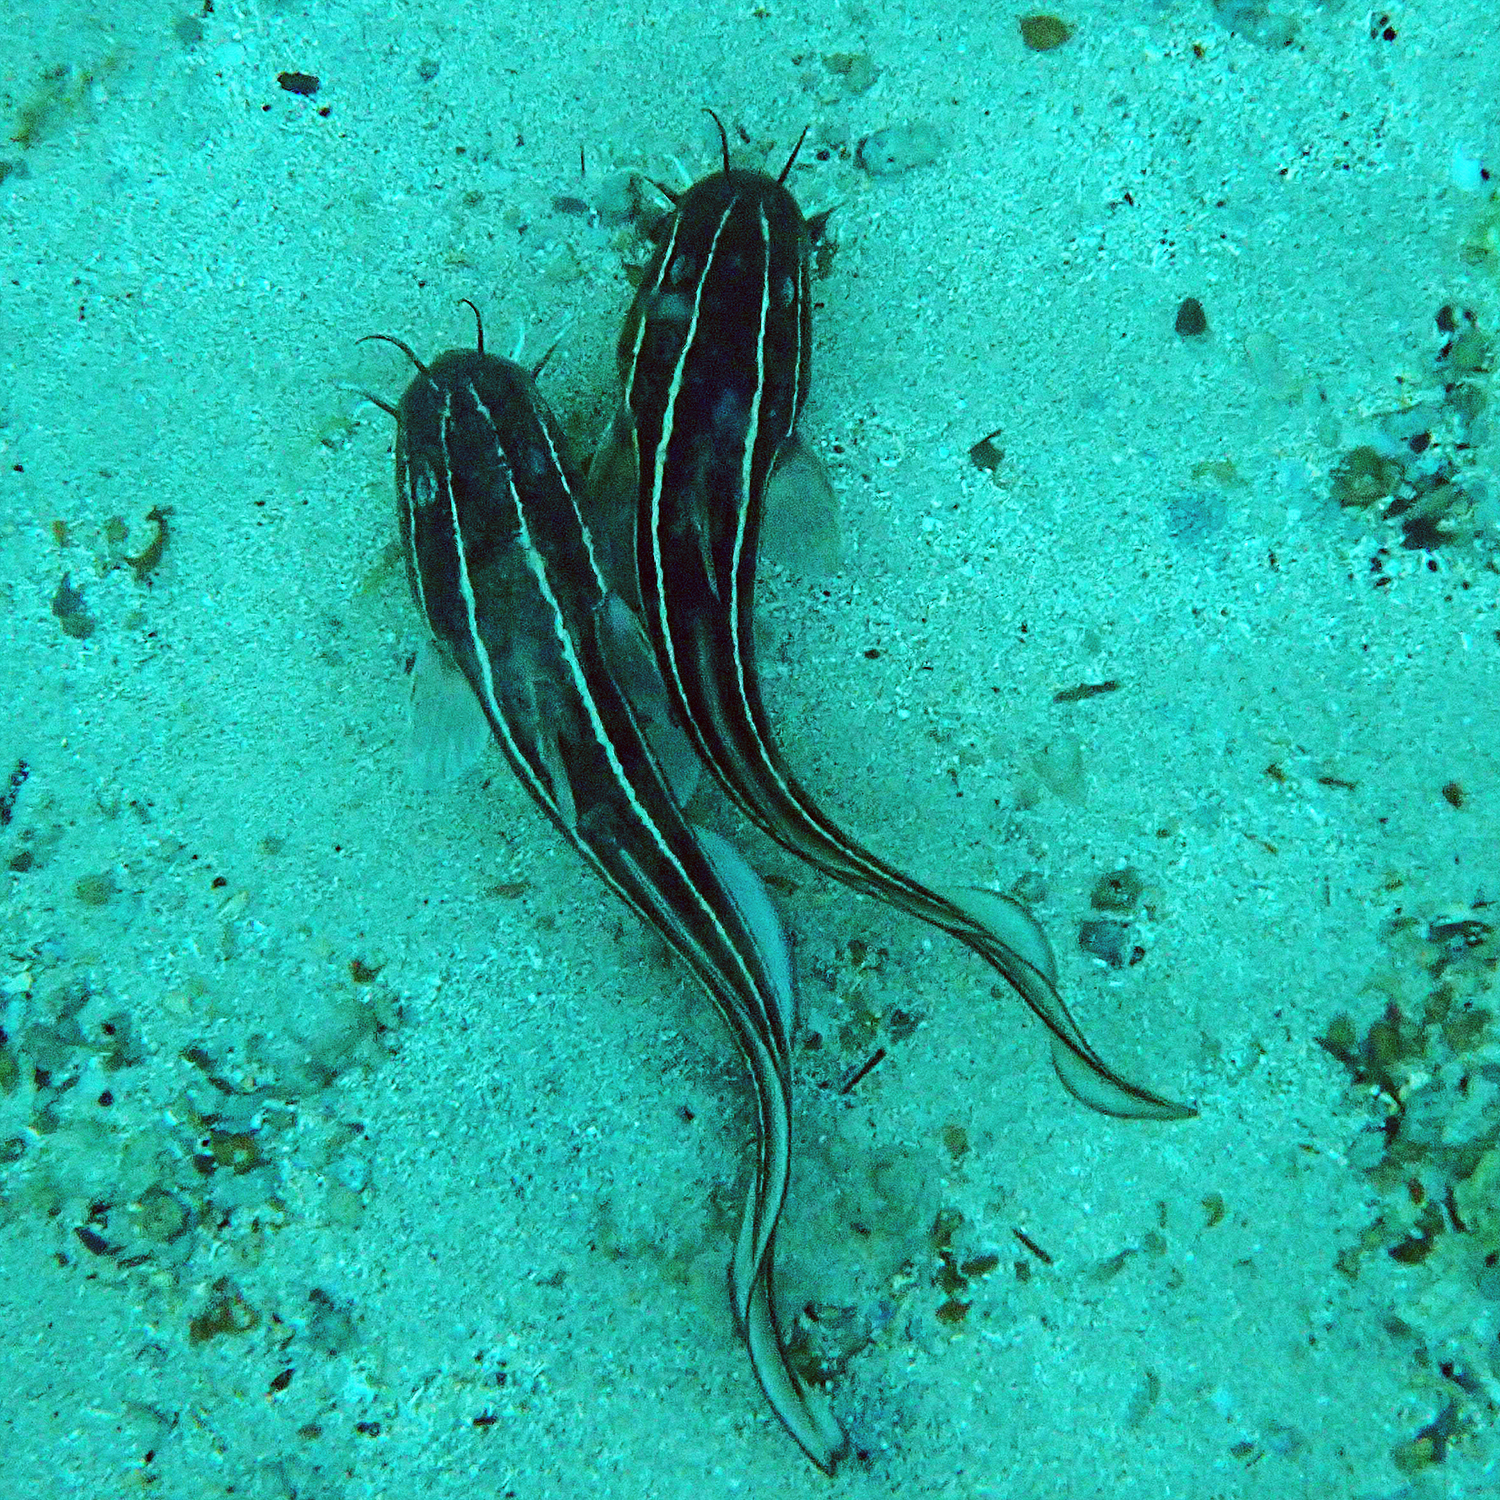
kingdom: Animalia
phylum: Chordata
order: Siluriformes
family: Plotosidae
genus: Plotosus
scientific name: Plotosus lineatus
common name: Striped eel catfish
